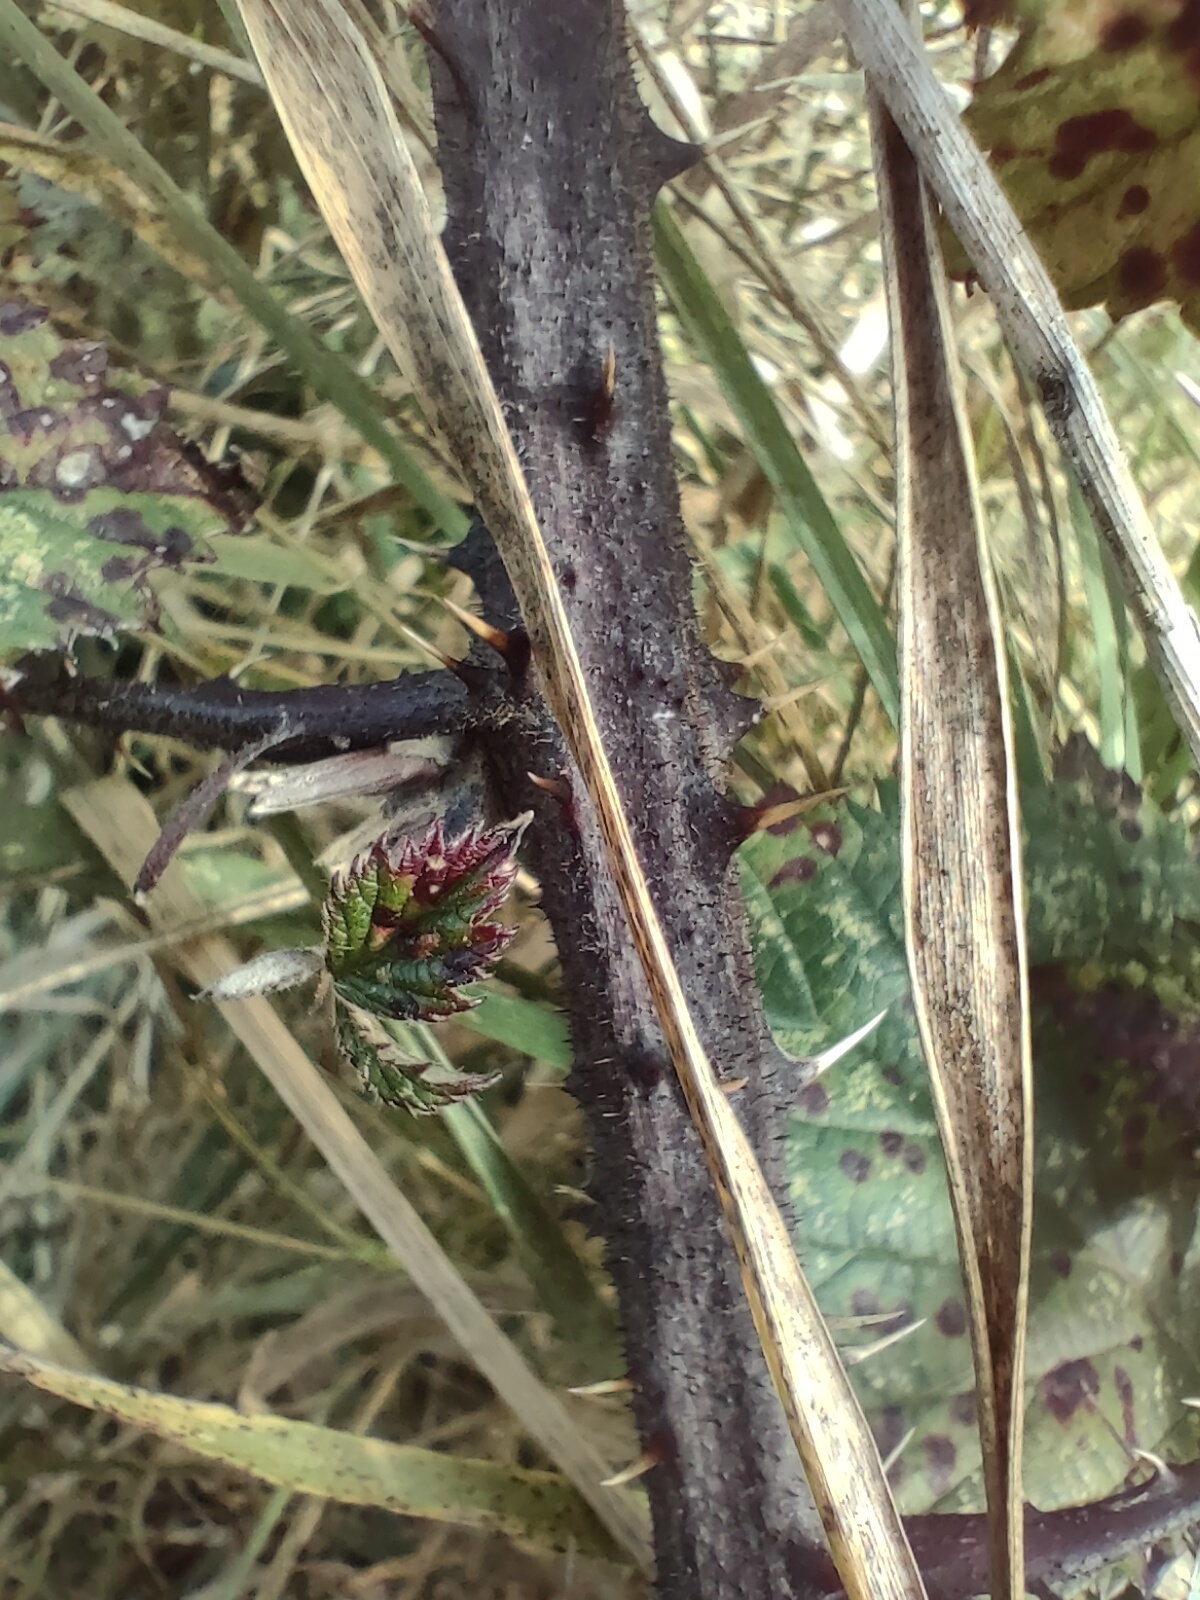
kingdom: Plantae
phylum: Tracheophyta
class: Magnoliopsida
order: Rosales
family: Rosaceae
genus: Rubus
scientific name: Rubus echinatus
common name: Echinate bramble
